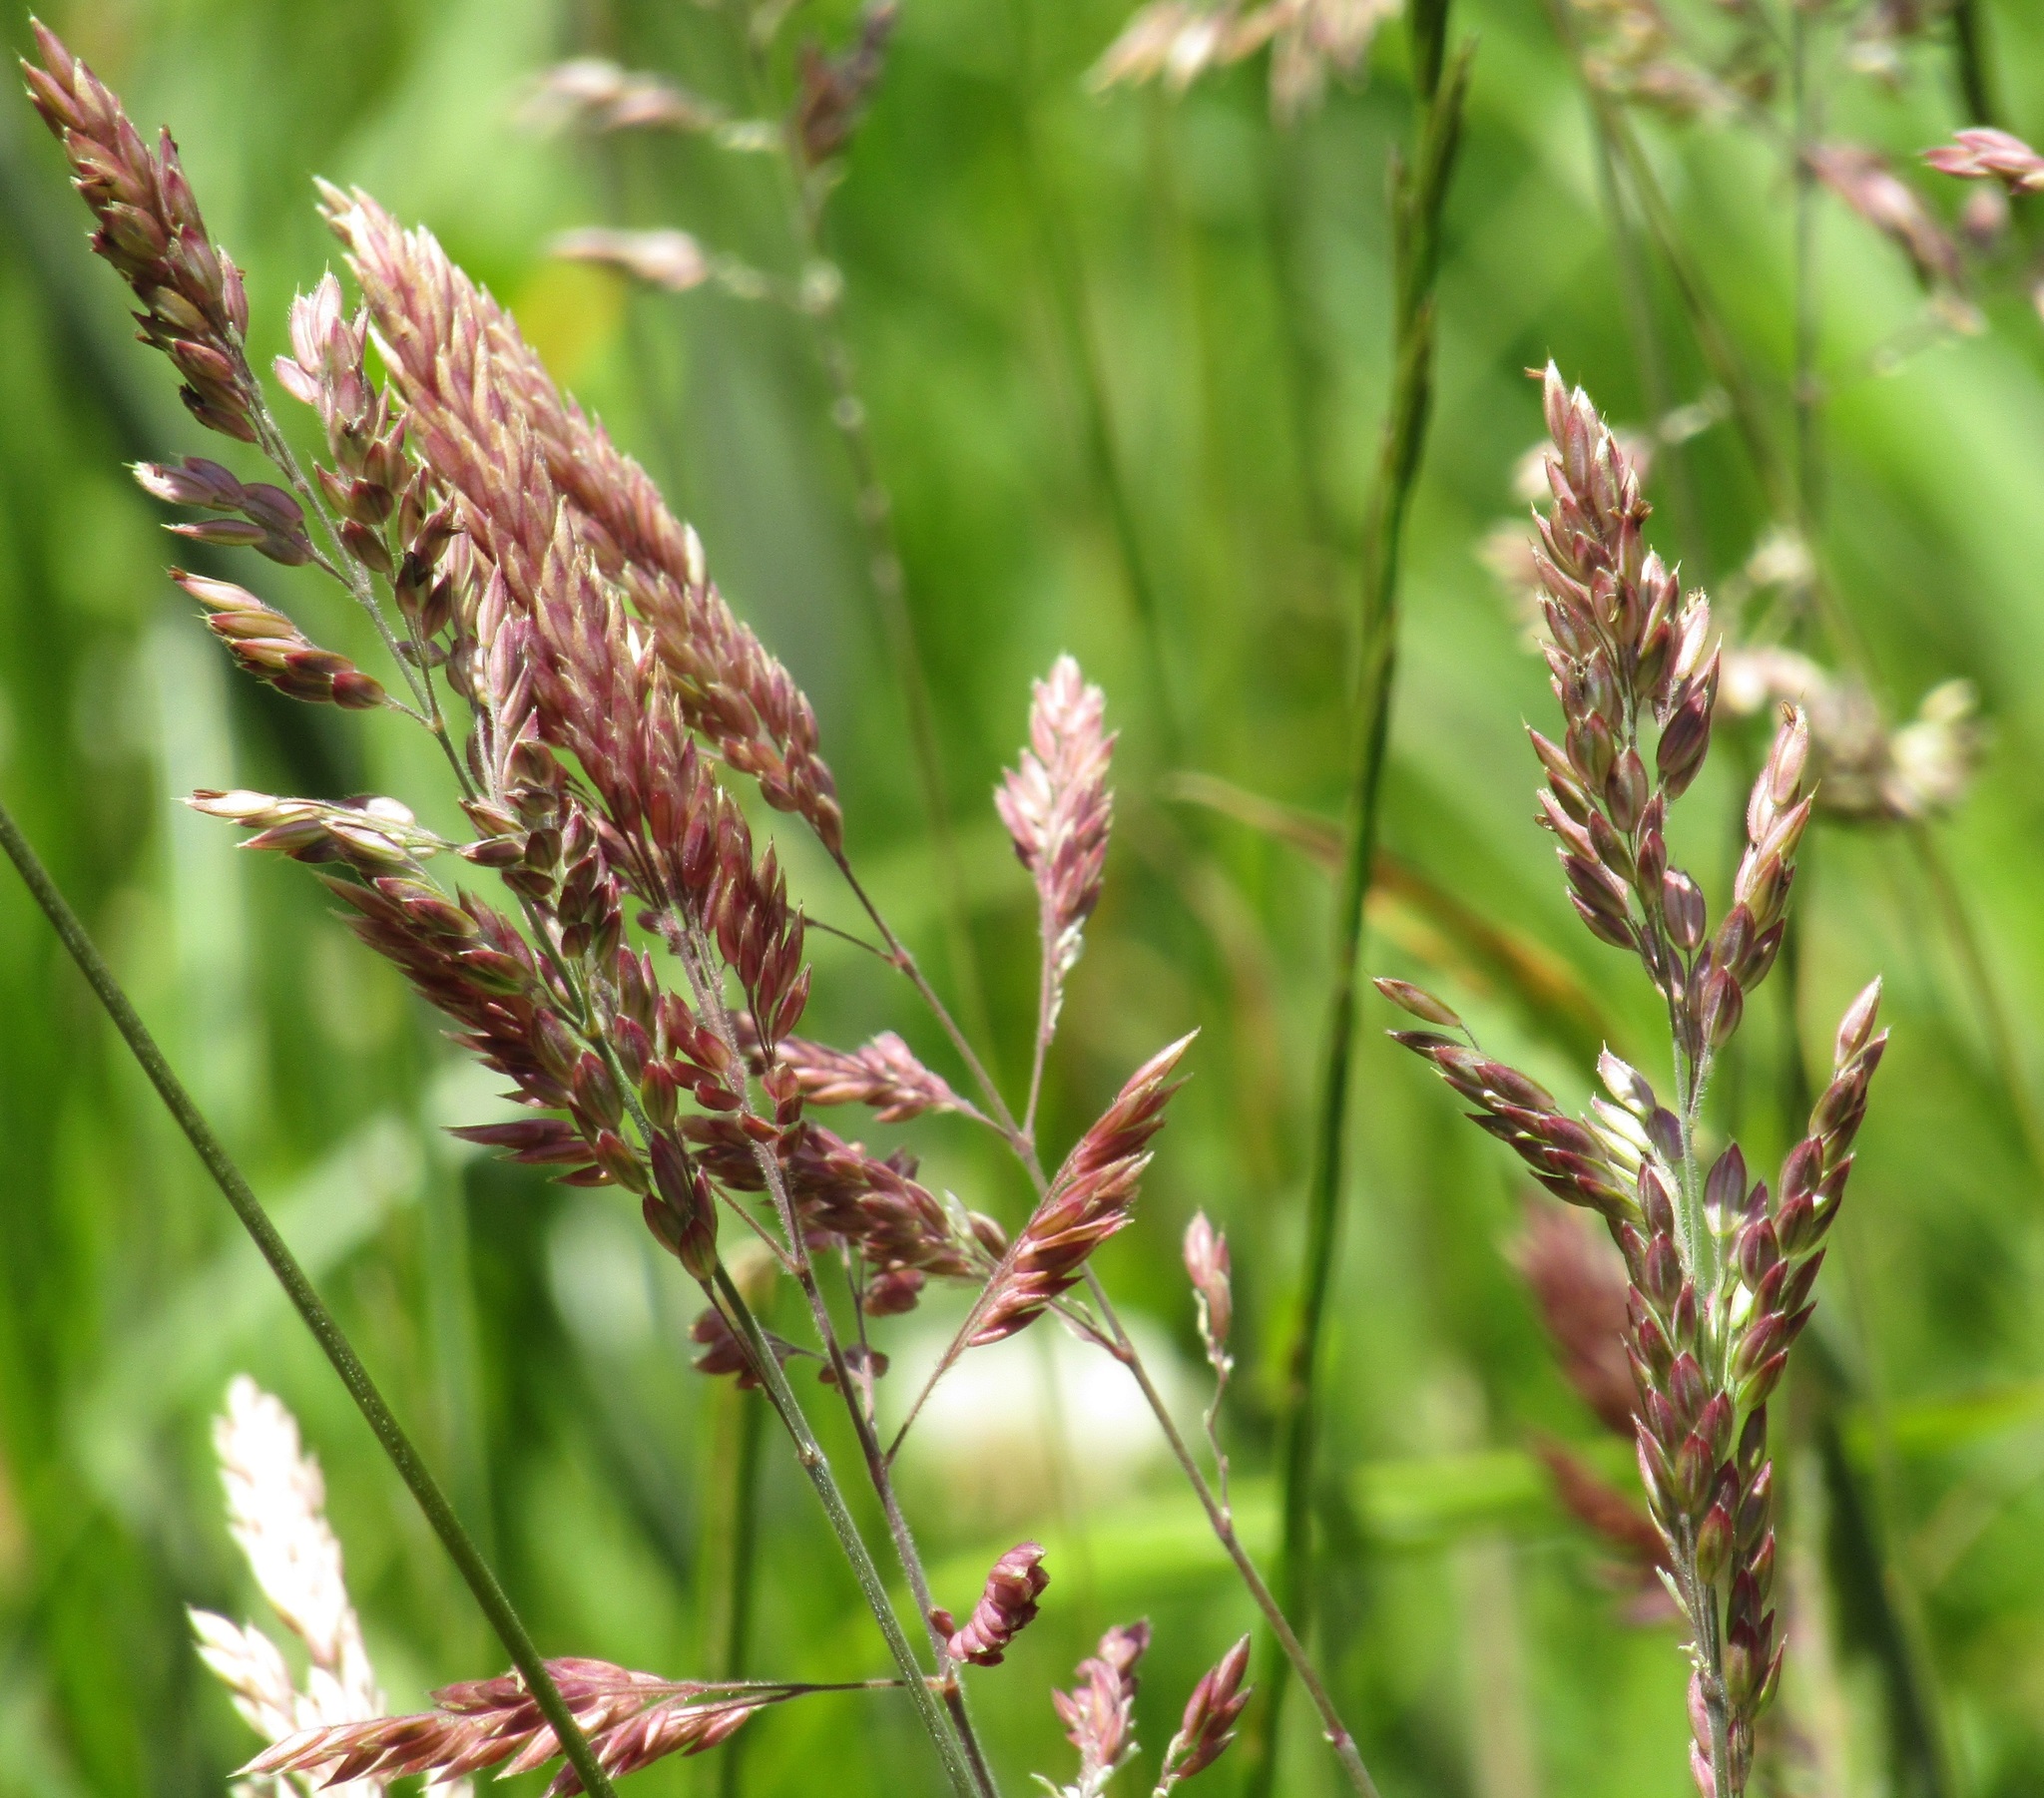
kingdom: Plantae
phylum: Tracheophyta
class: Liliopsida
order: Poales
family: Poaceae
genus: Holcus
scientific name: Holcus lanatus
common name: Yorkshire-fog
